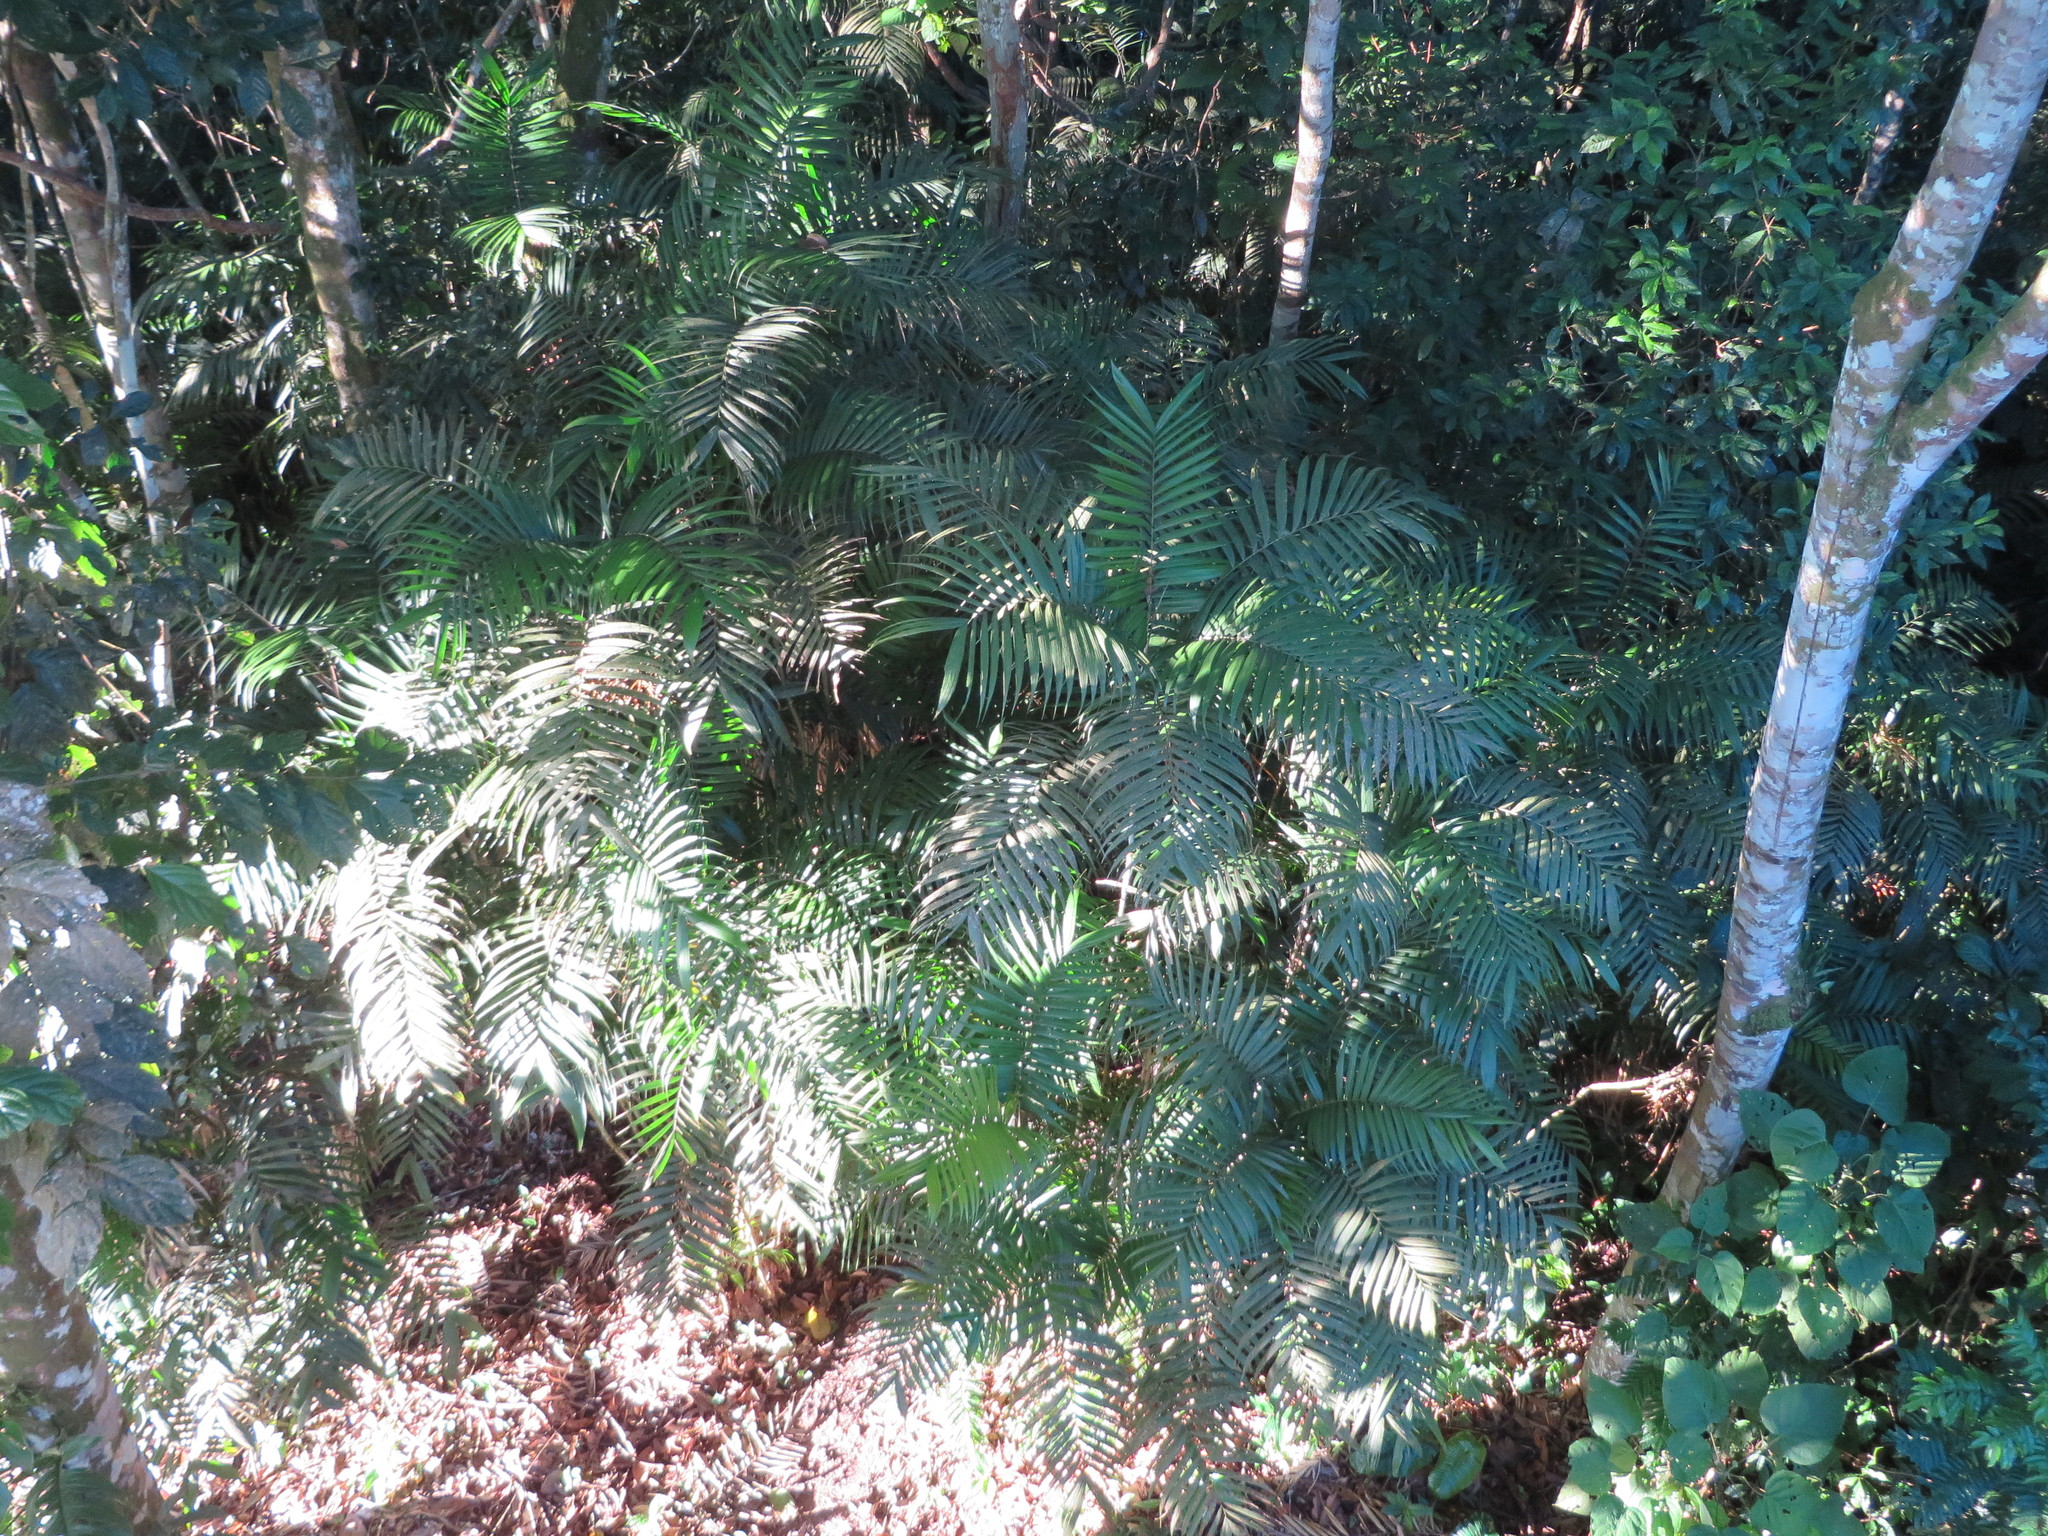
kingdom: Plantae
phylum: Tracheophyta
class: Liliopsida
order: Arecales
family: Arecaceae
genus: Geonoma
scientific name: Geonoma maxima
